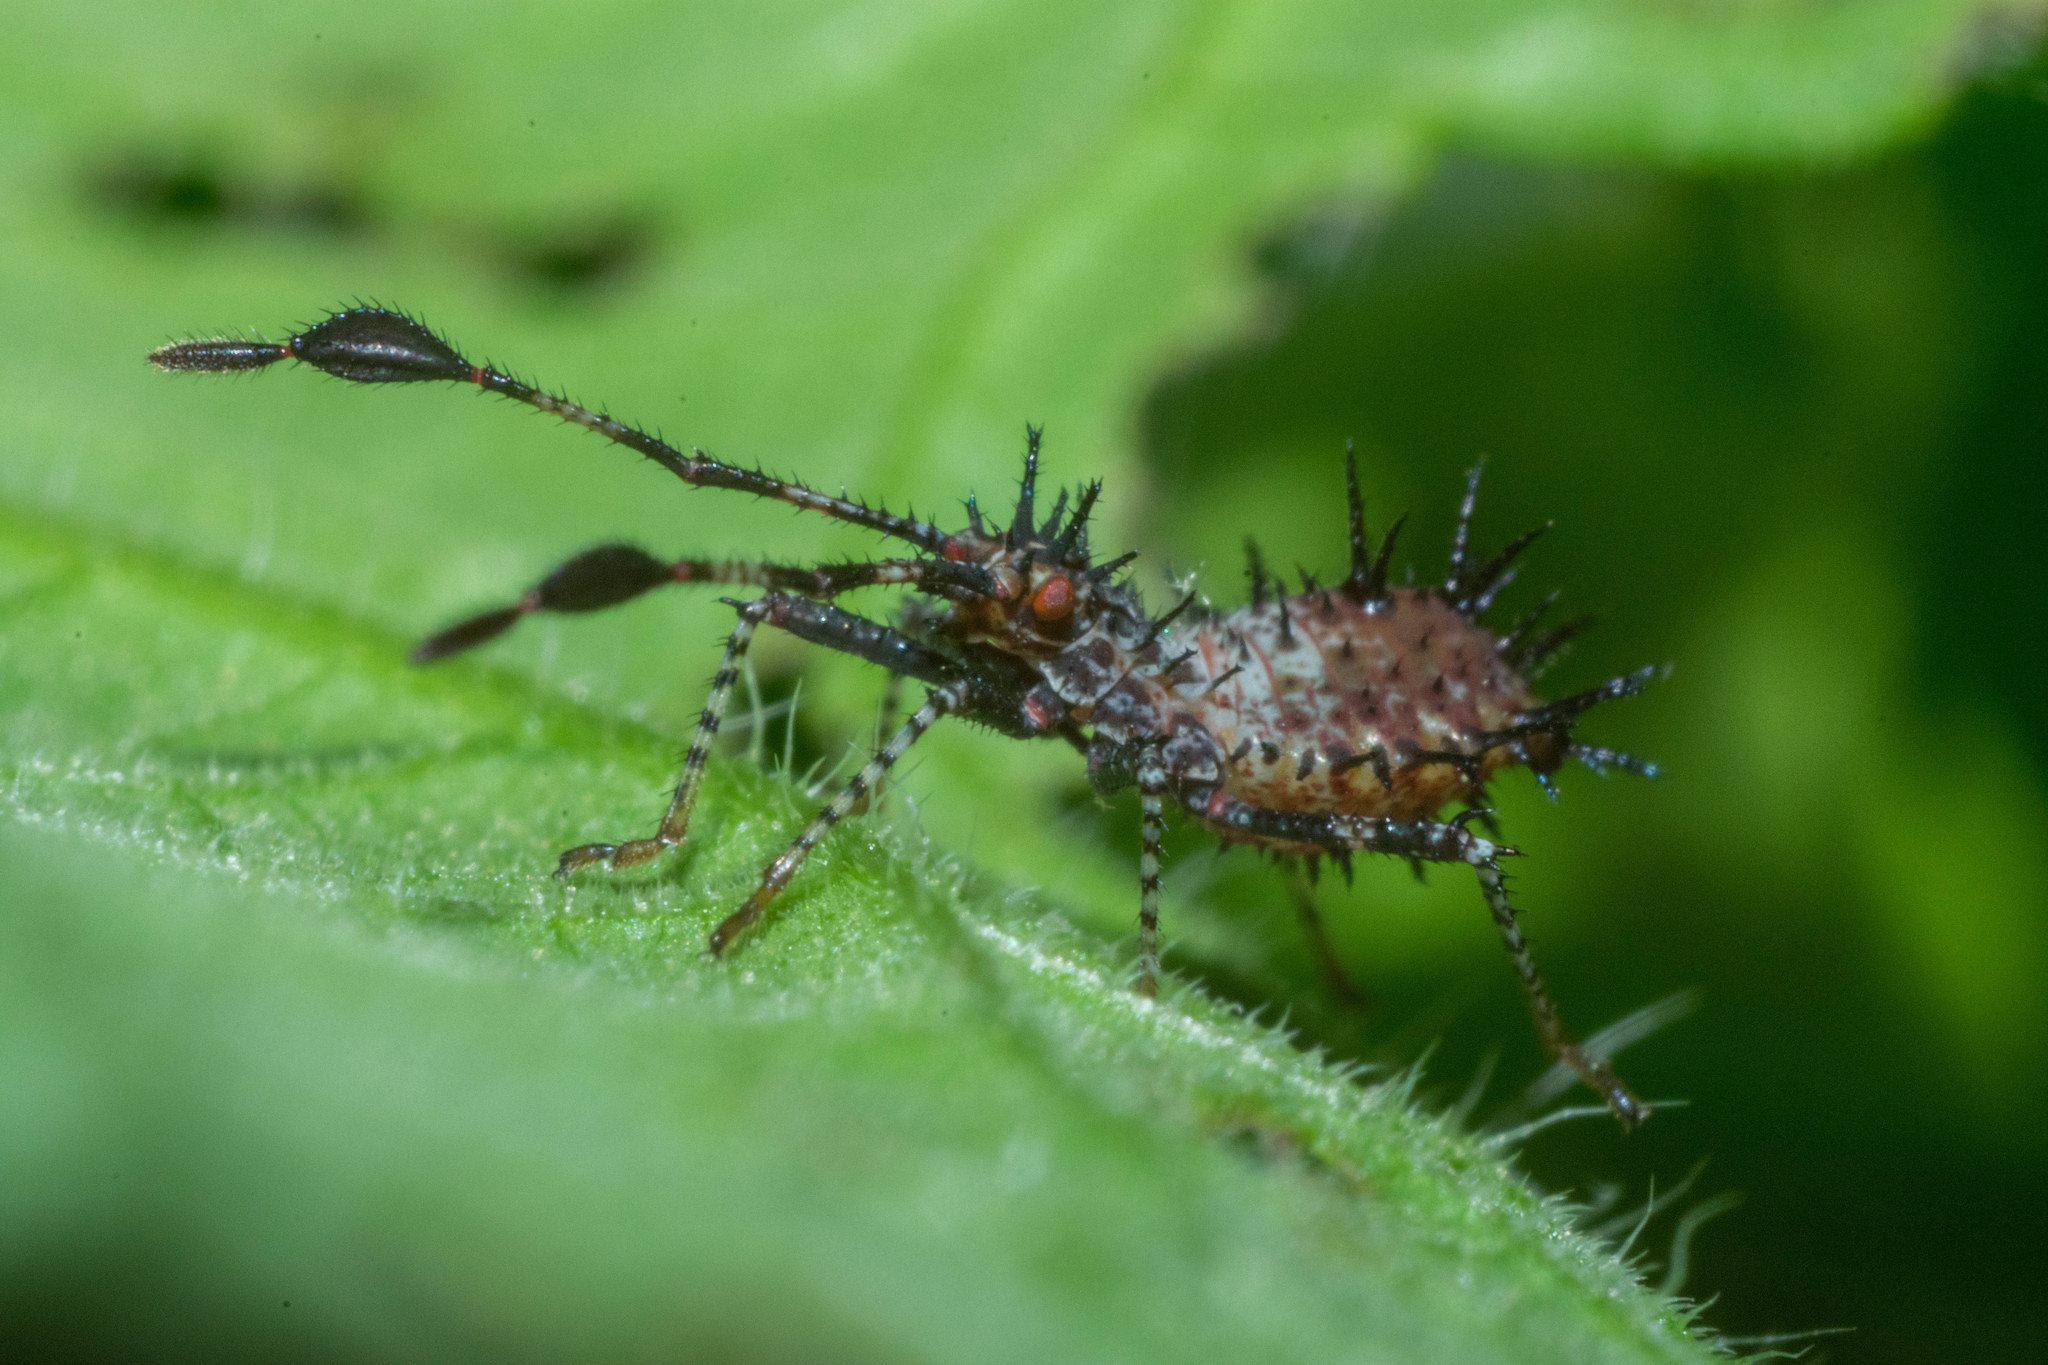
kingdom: Animalia
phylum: Arthropoda
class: Insecta
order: Hemiptera
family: Coreidae
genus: Euthochtha
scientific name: Euthochtha galeator
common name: Helmeted squash bug
